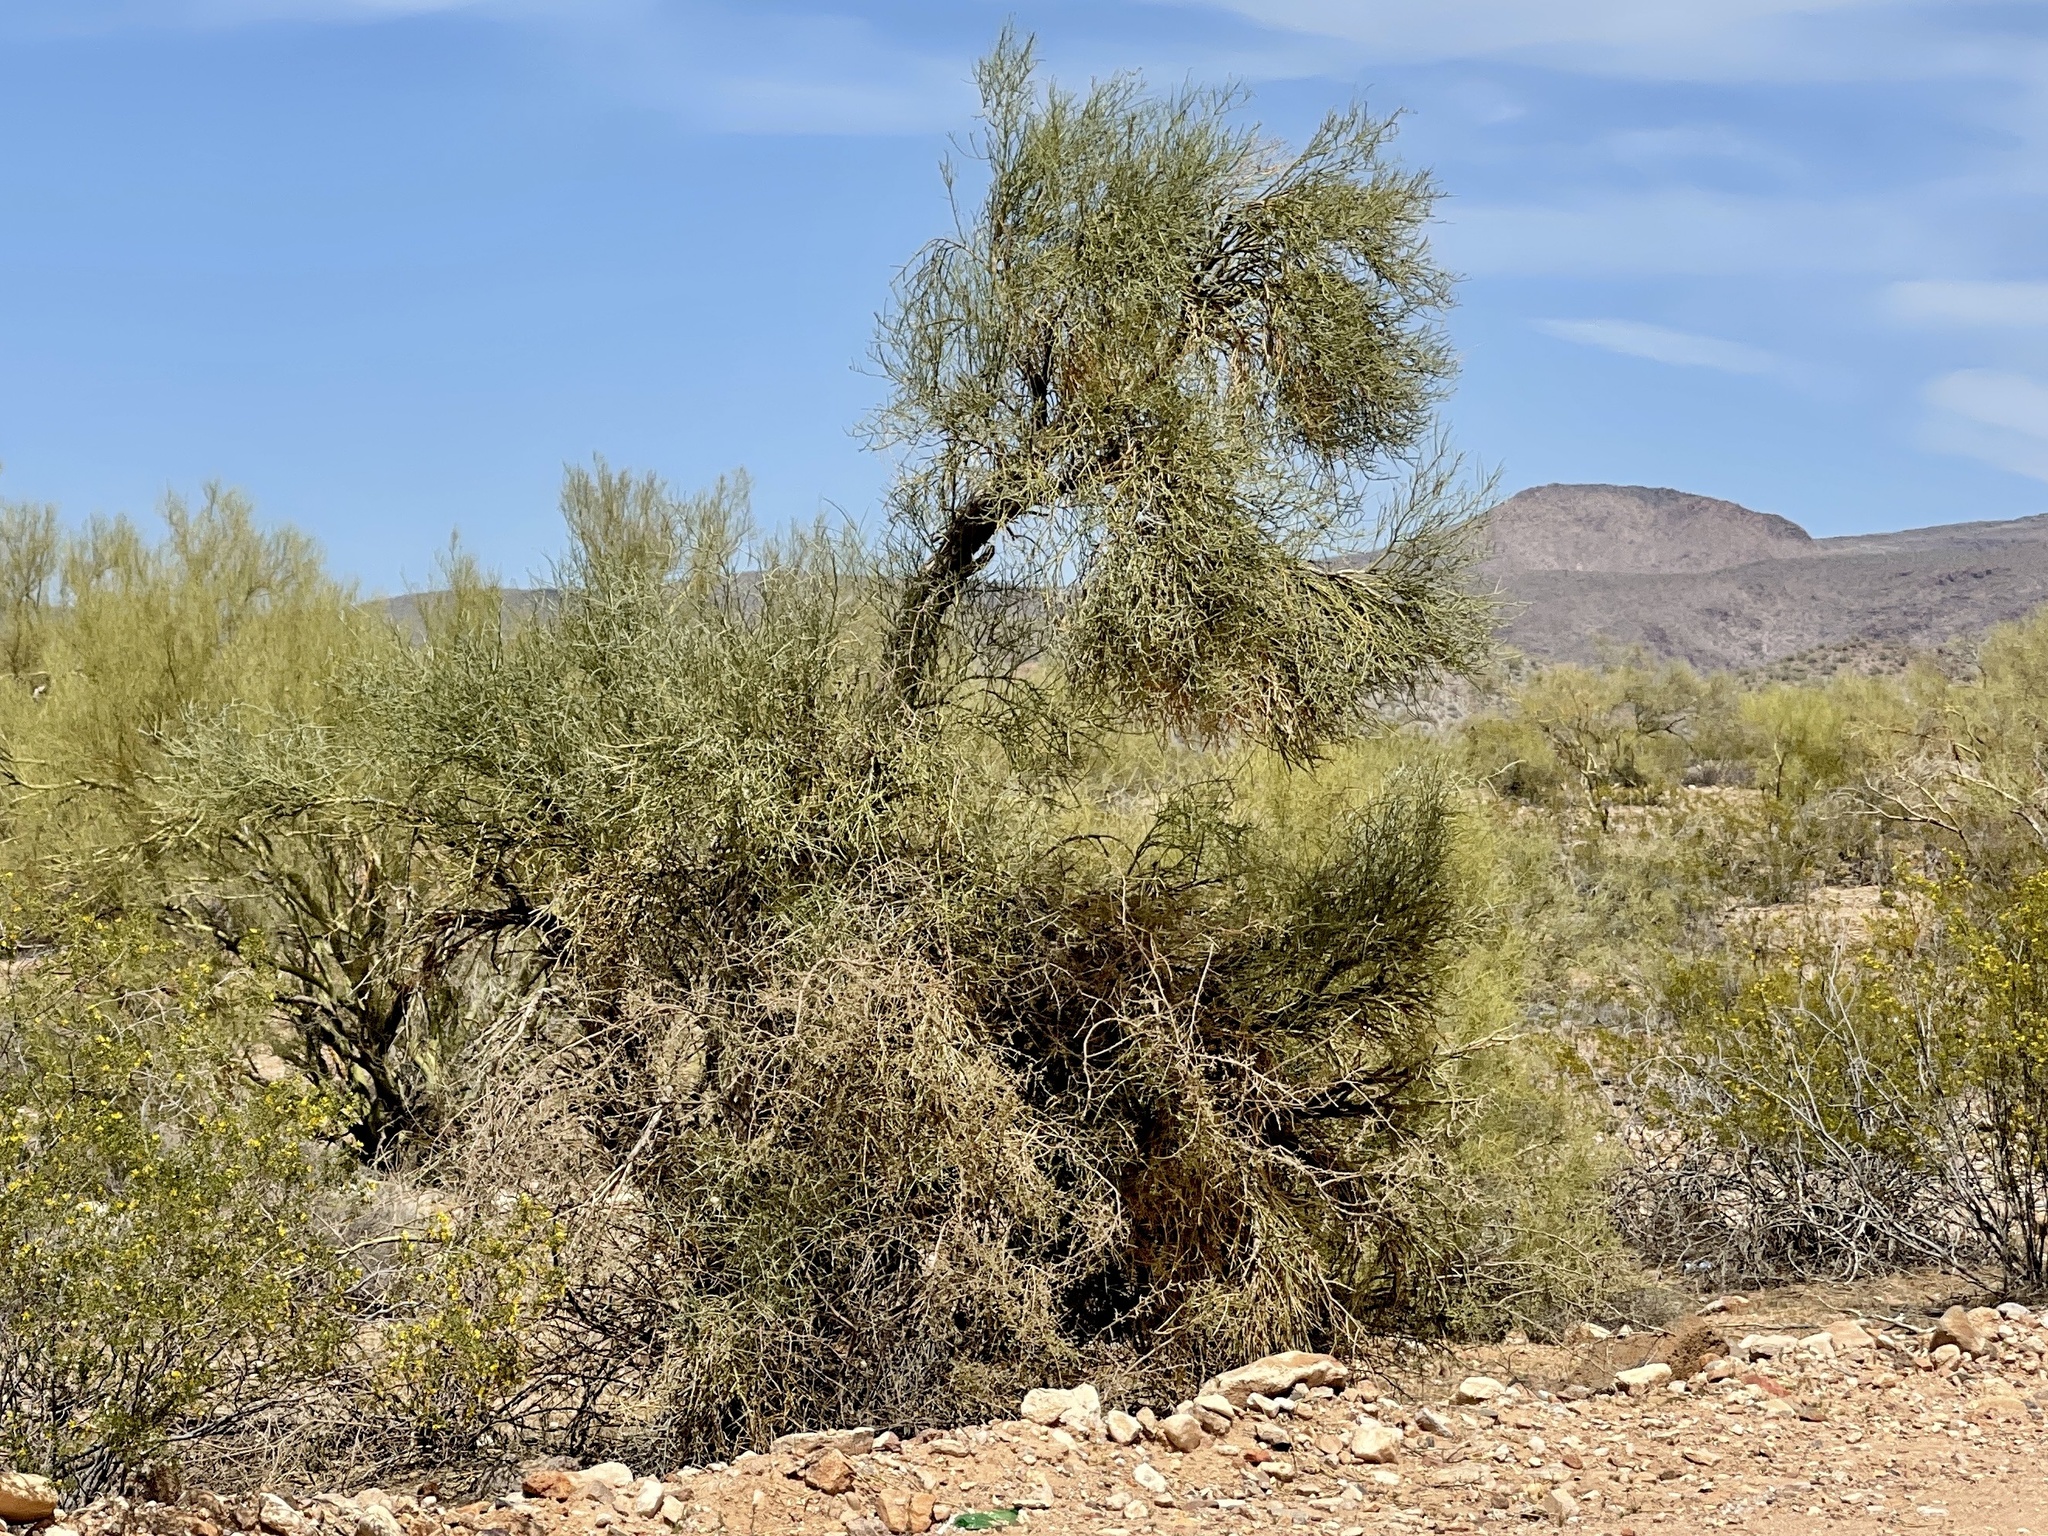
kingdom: Plantae
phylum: Tracheophyta
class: Magnoliopsida
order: Celastrales
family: Celastraceae
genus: Canotia
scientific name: Canotia holacantha
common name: Crucifixion thorns
